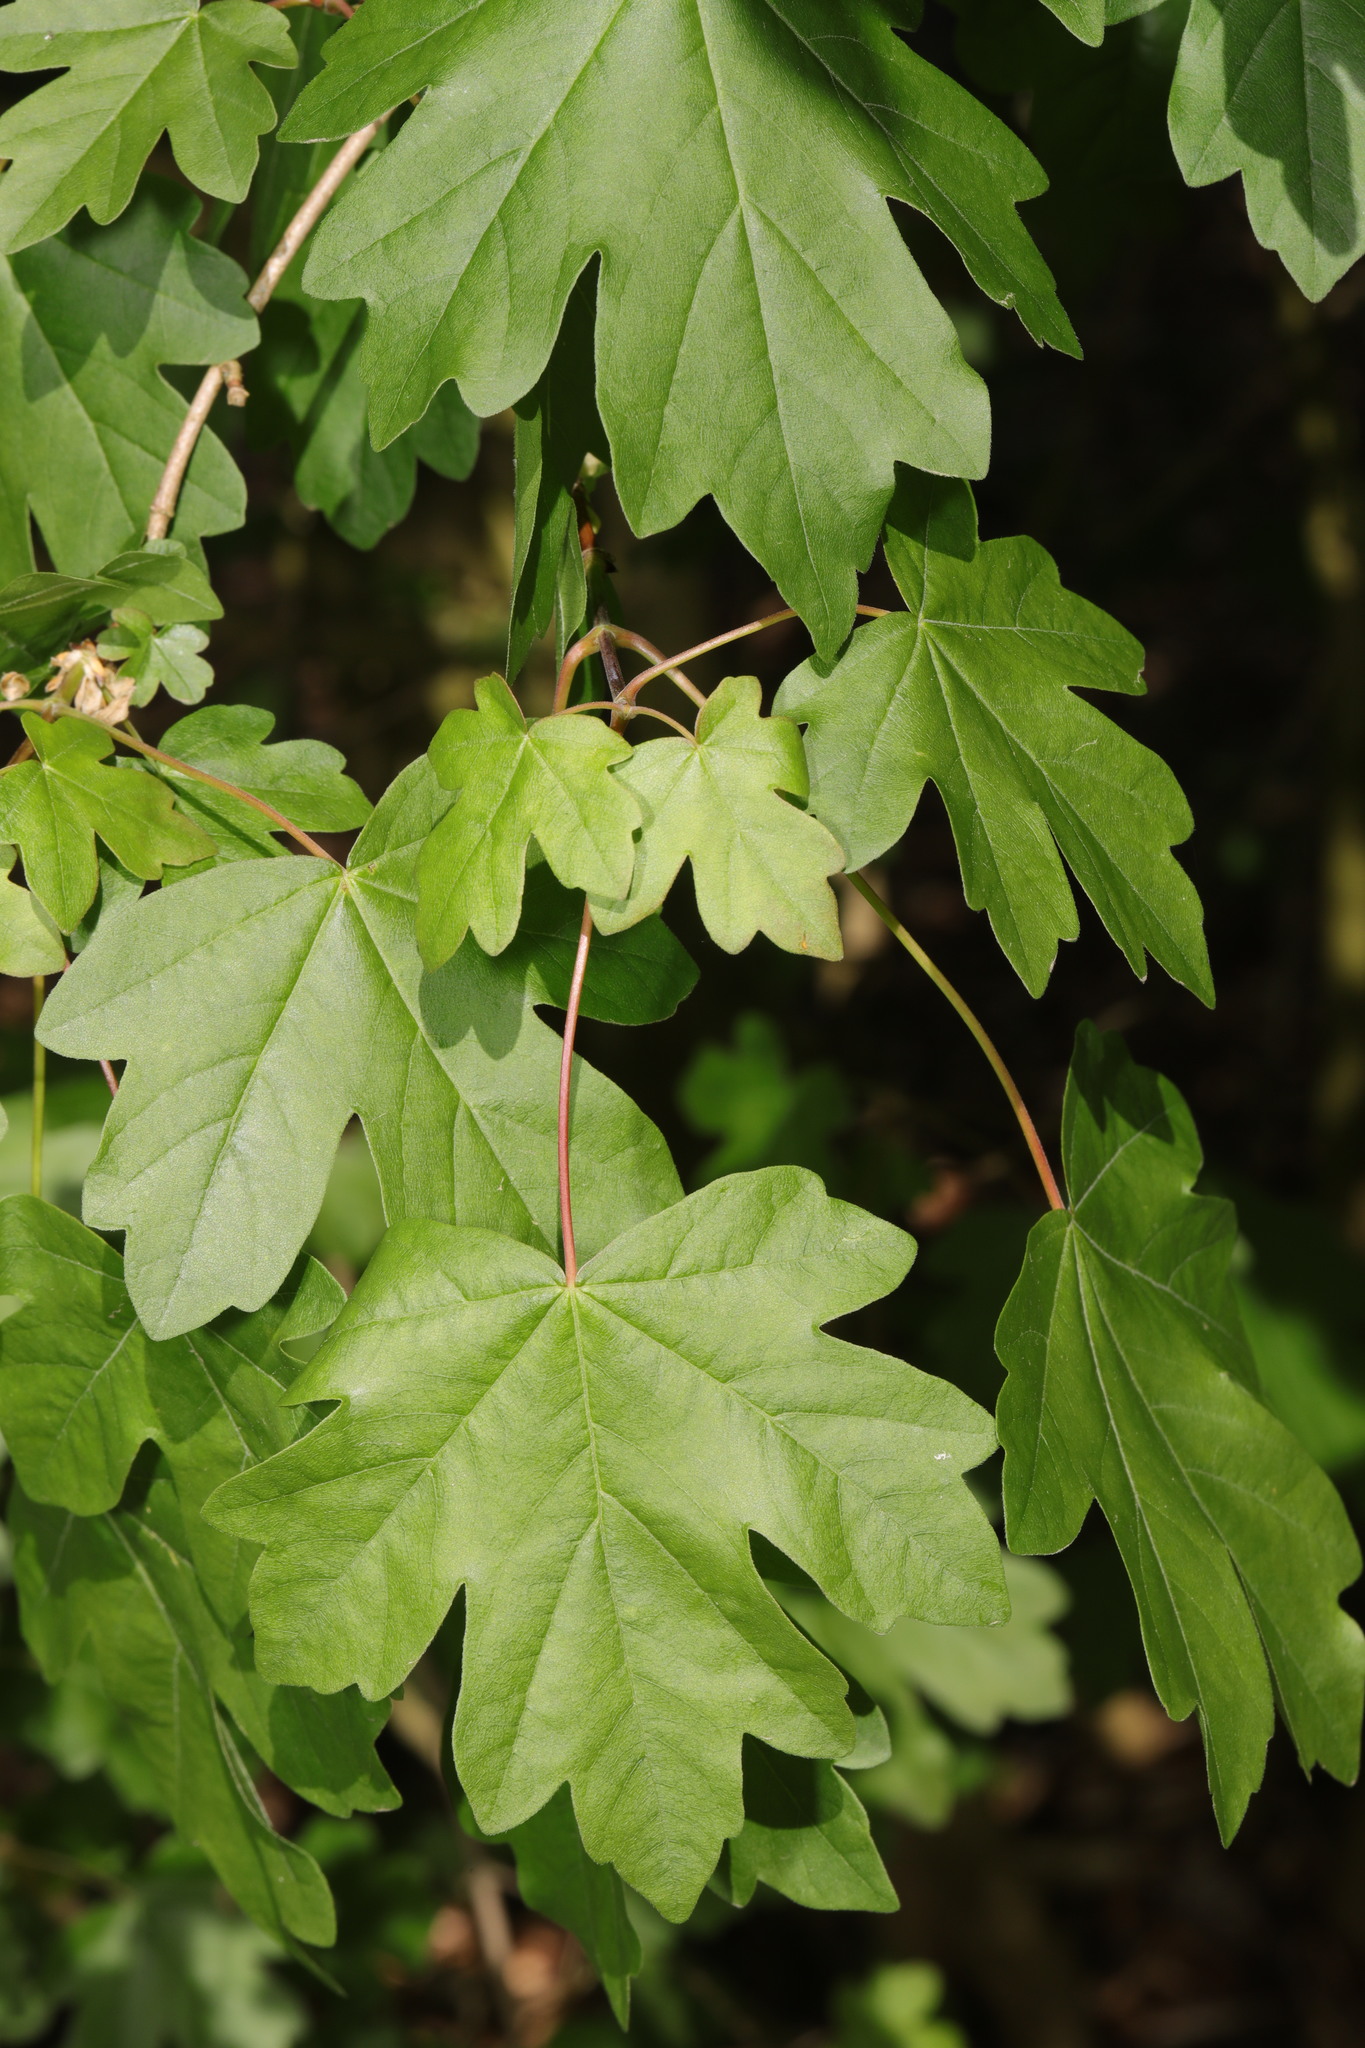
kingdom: Plantae
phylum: Tracheophyta
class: Magnoliopsida
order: Sapindales
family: Sapindaceae
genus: Acer
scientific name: Acer campestre
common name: Field maple
